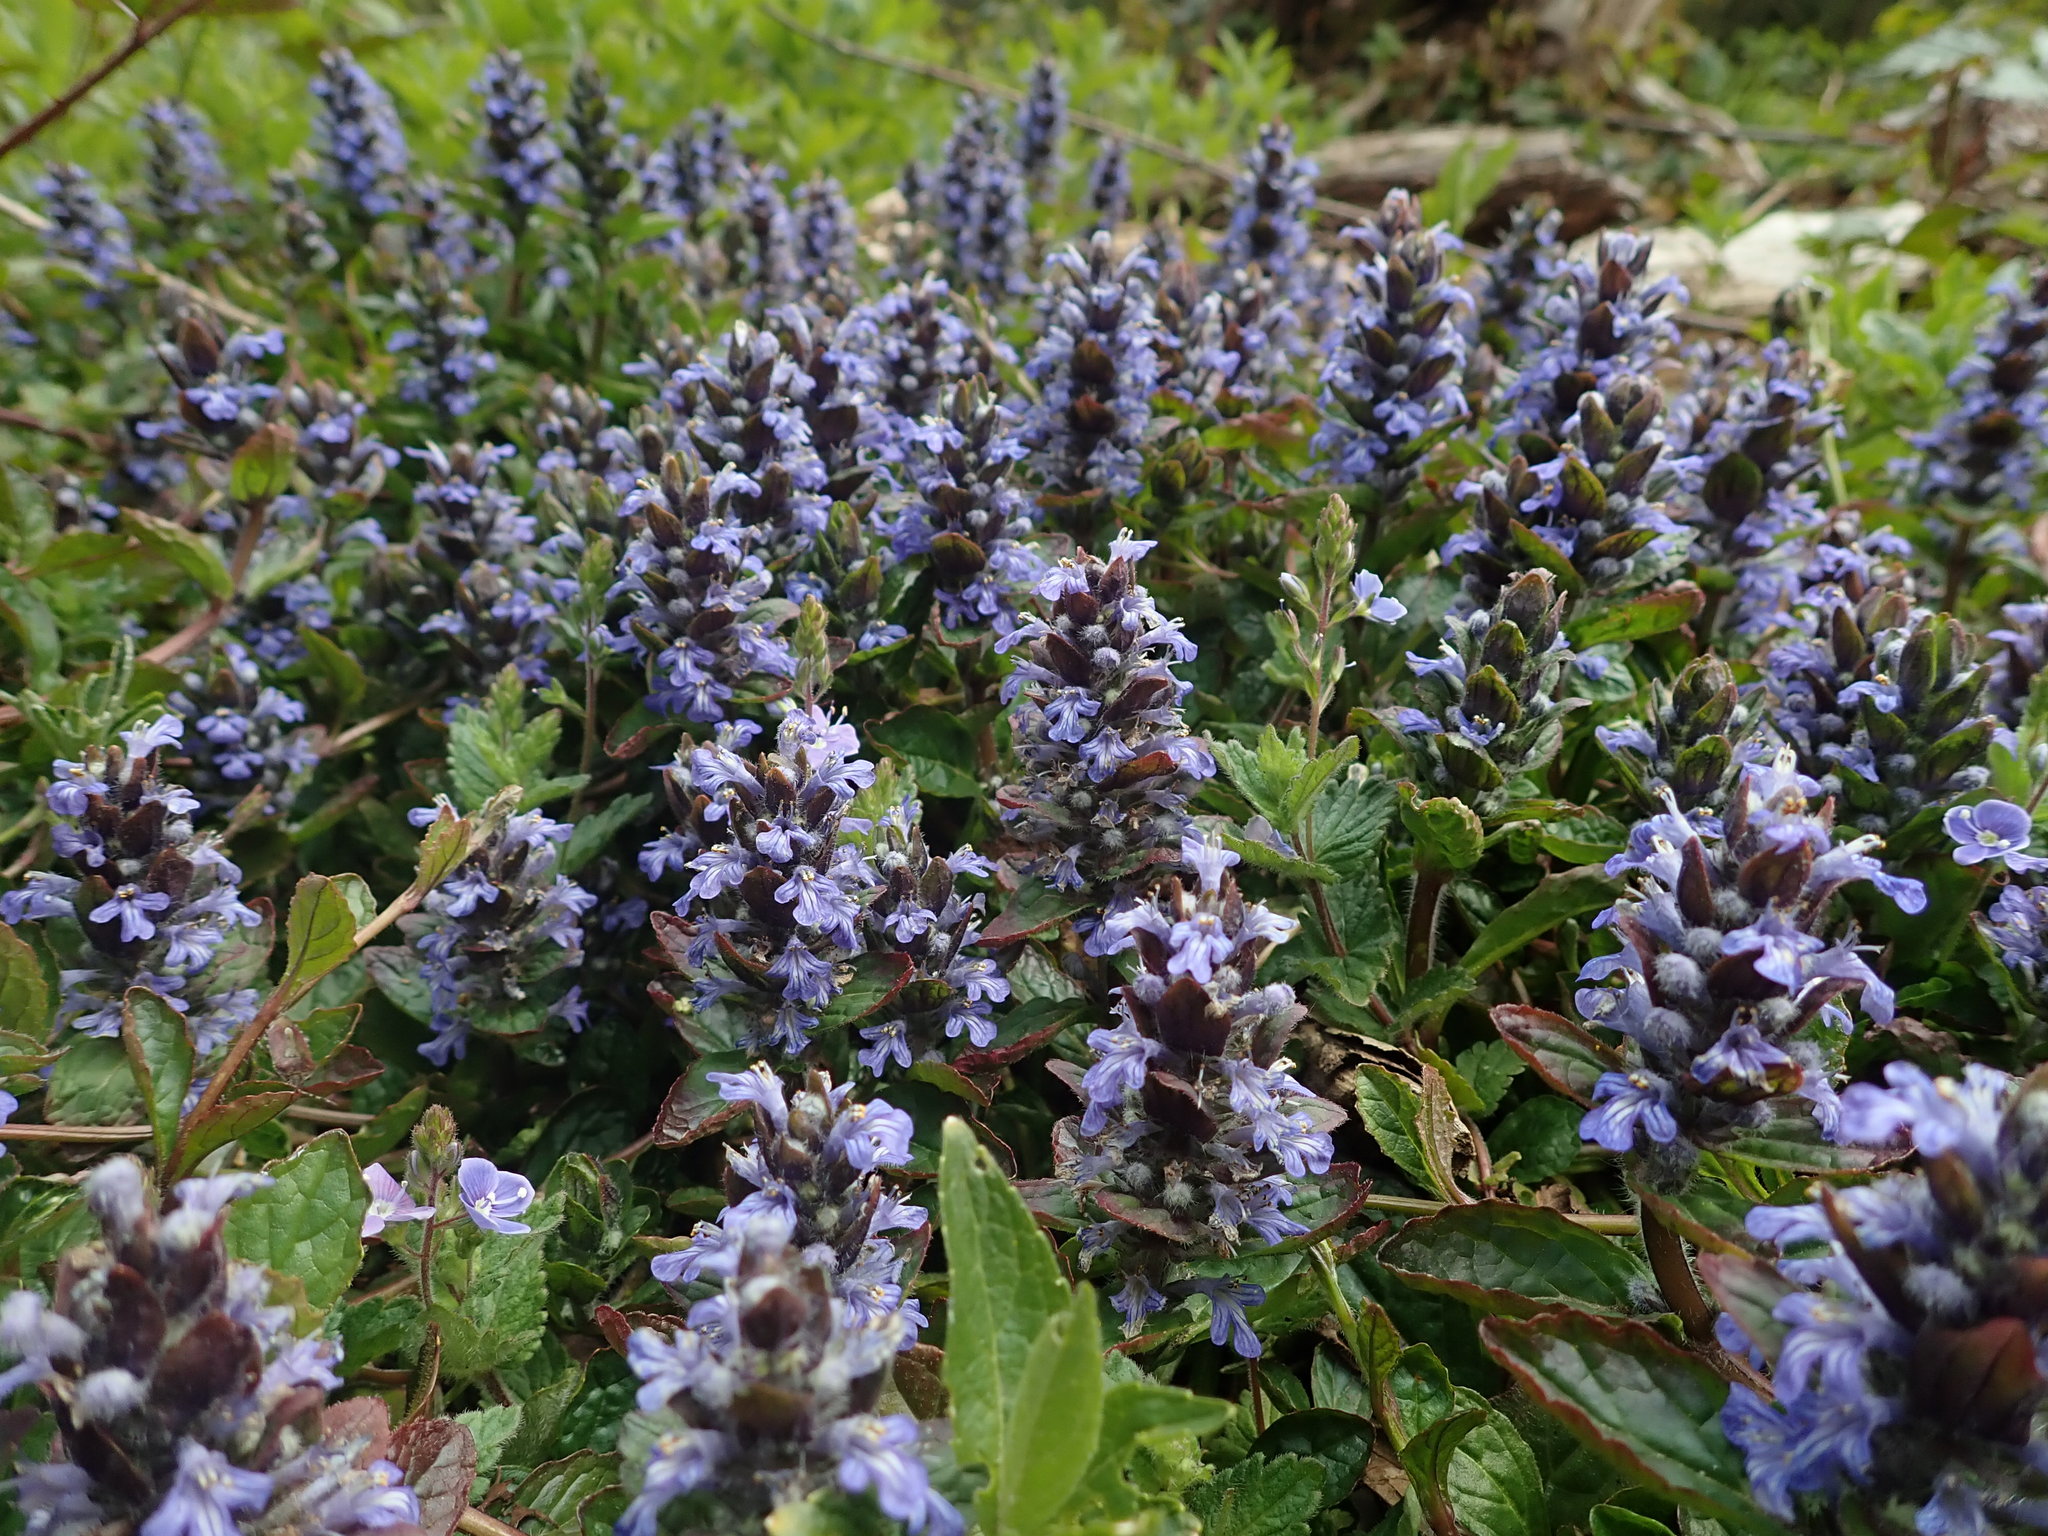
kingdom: Plantae
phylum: Tracheophyta
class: Magnoliopsida
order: Lamiales
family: Lamiaceae
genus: Ajuga
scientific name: Ajuga reptans
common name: Bugle
